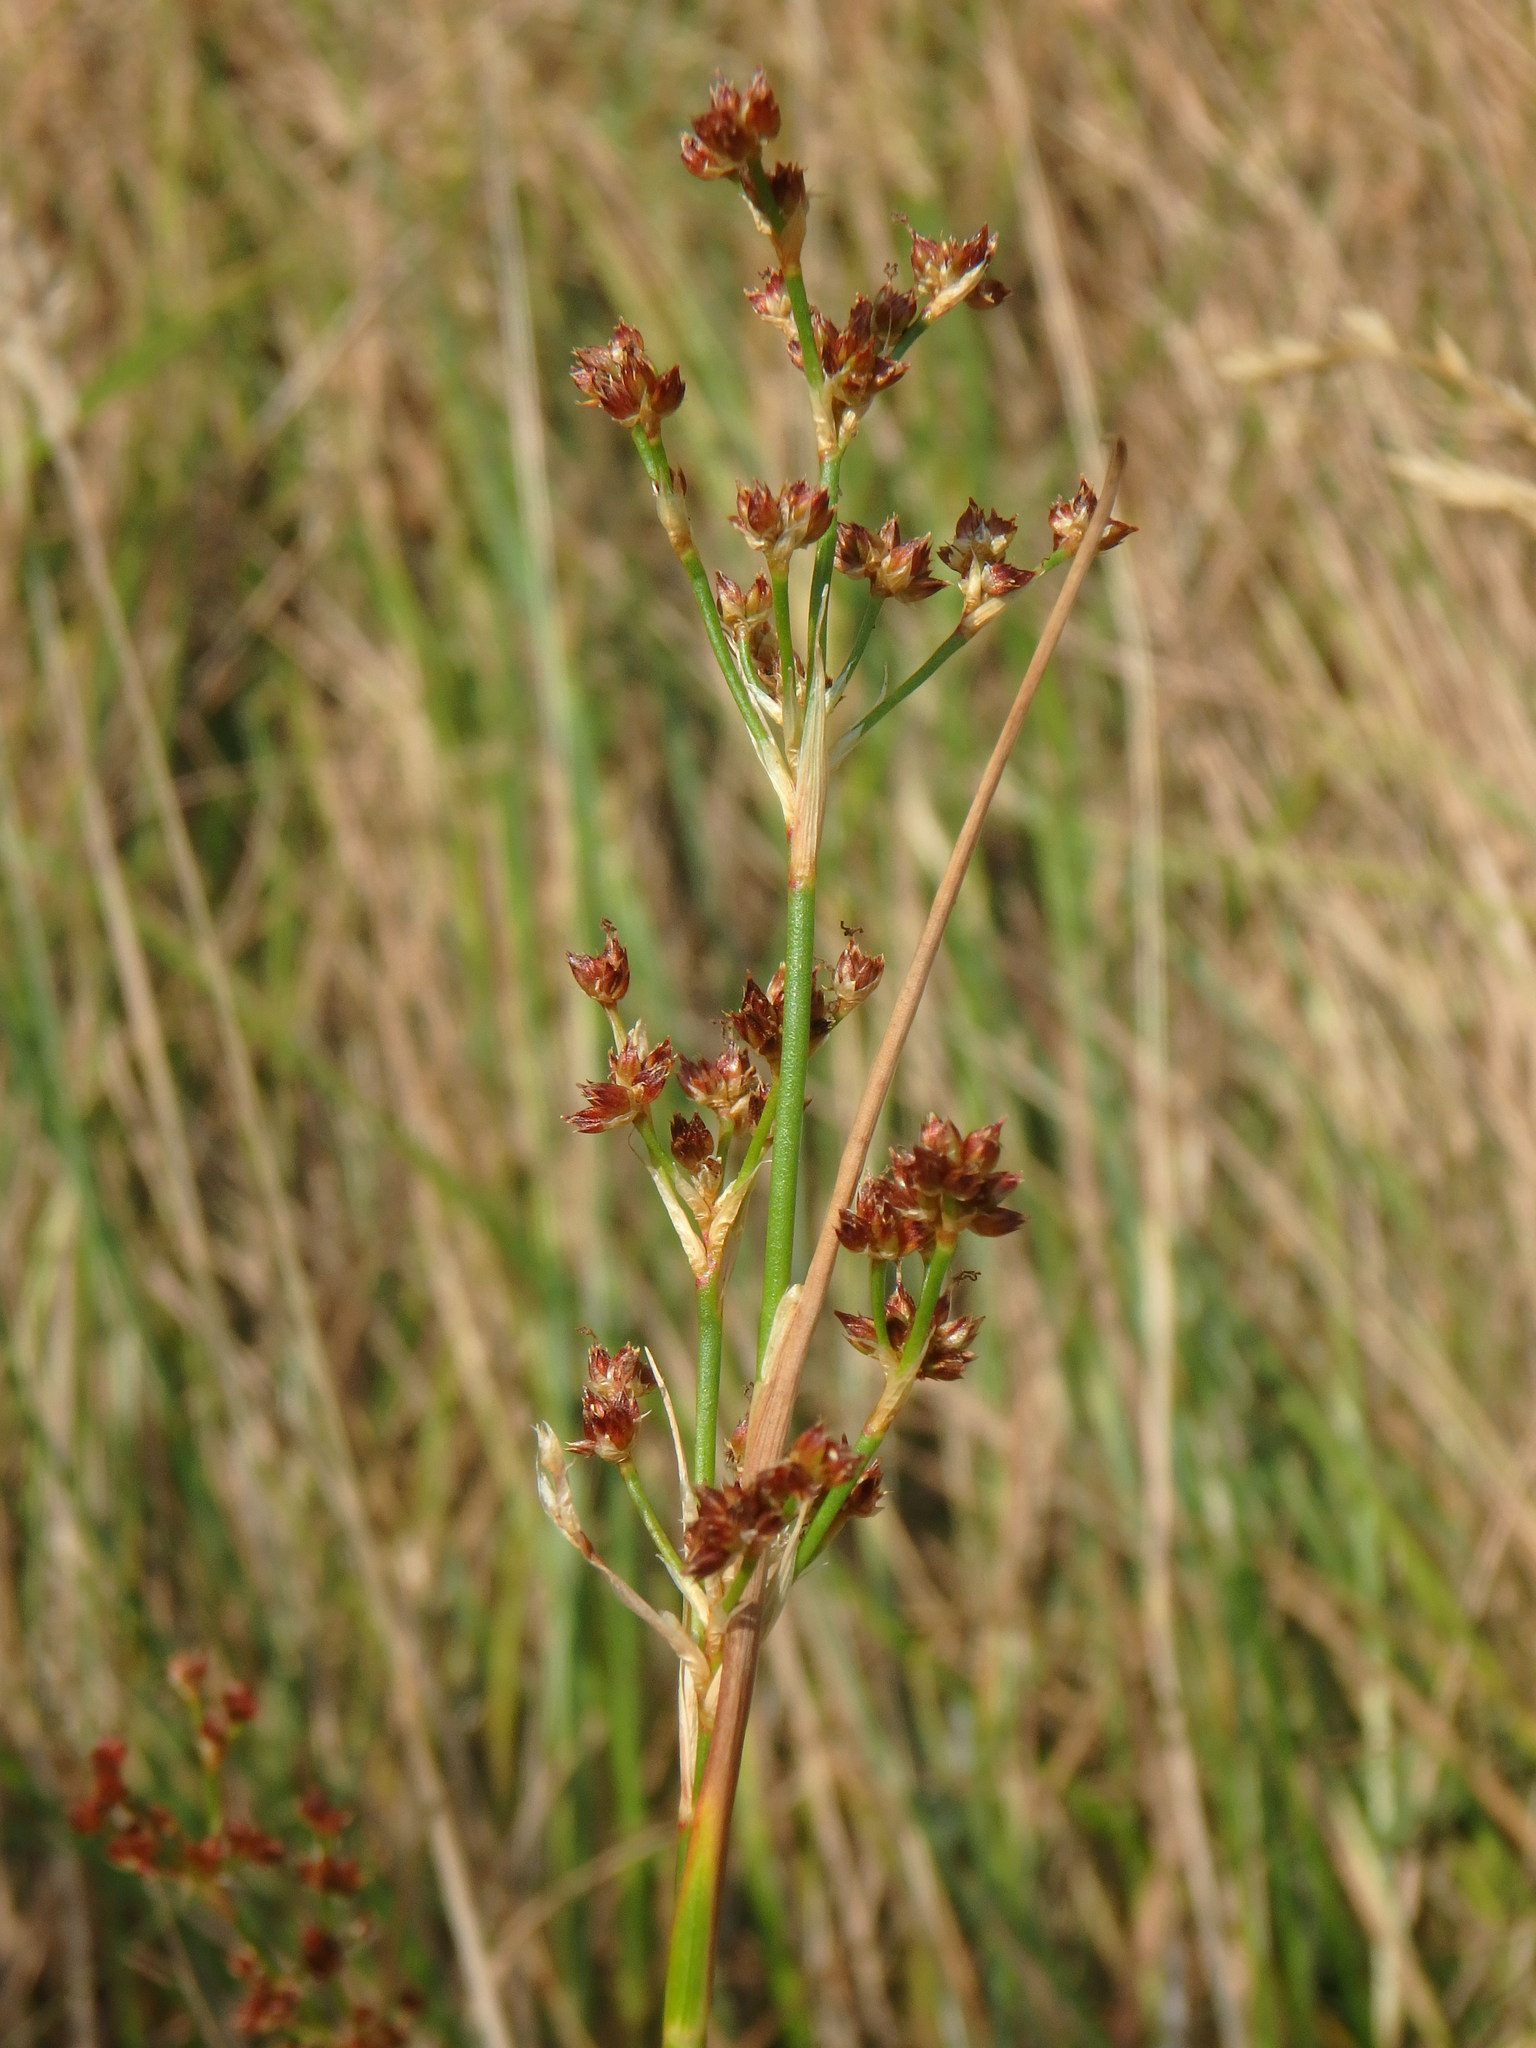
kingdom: Plantae
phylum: Tracheophyta
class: Liliopsida
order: Poales
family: Juncaceae
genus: Juncus
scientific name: Juncus articulatus
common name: Jointed rush
